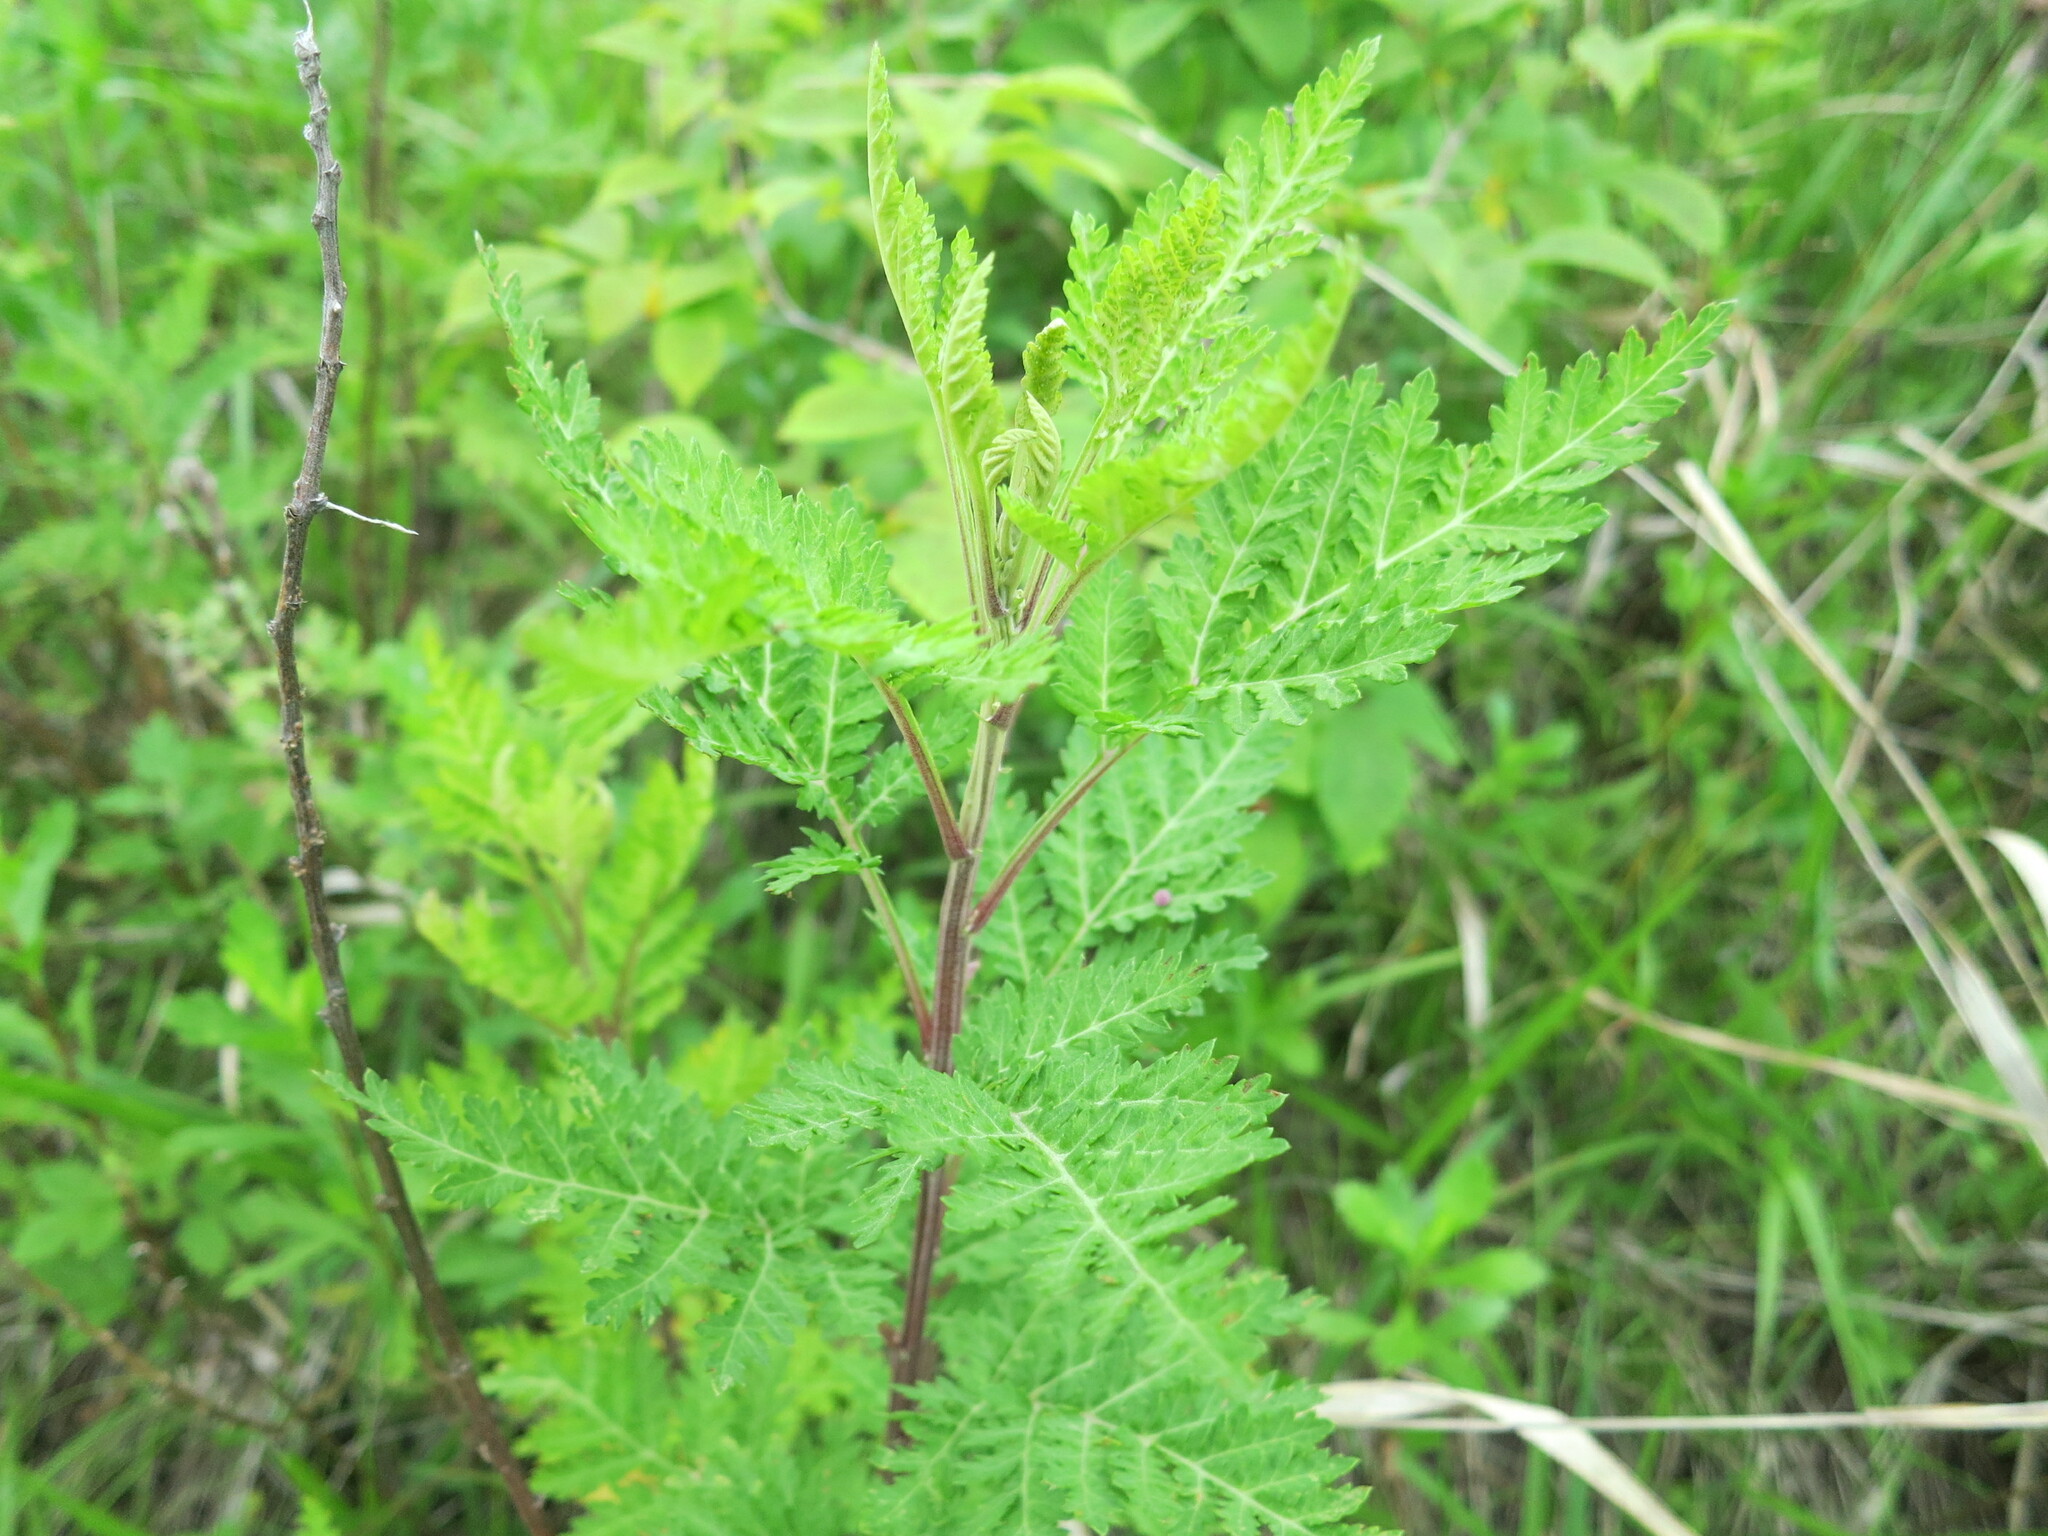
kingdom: Plantae
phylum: Tracheophyta
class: Magnoliopsida
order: Asterales
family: Asteraceae
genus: Artemisia
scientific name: Artemisia gmelinii
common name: Gmelin's wormwood
